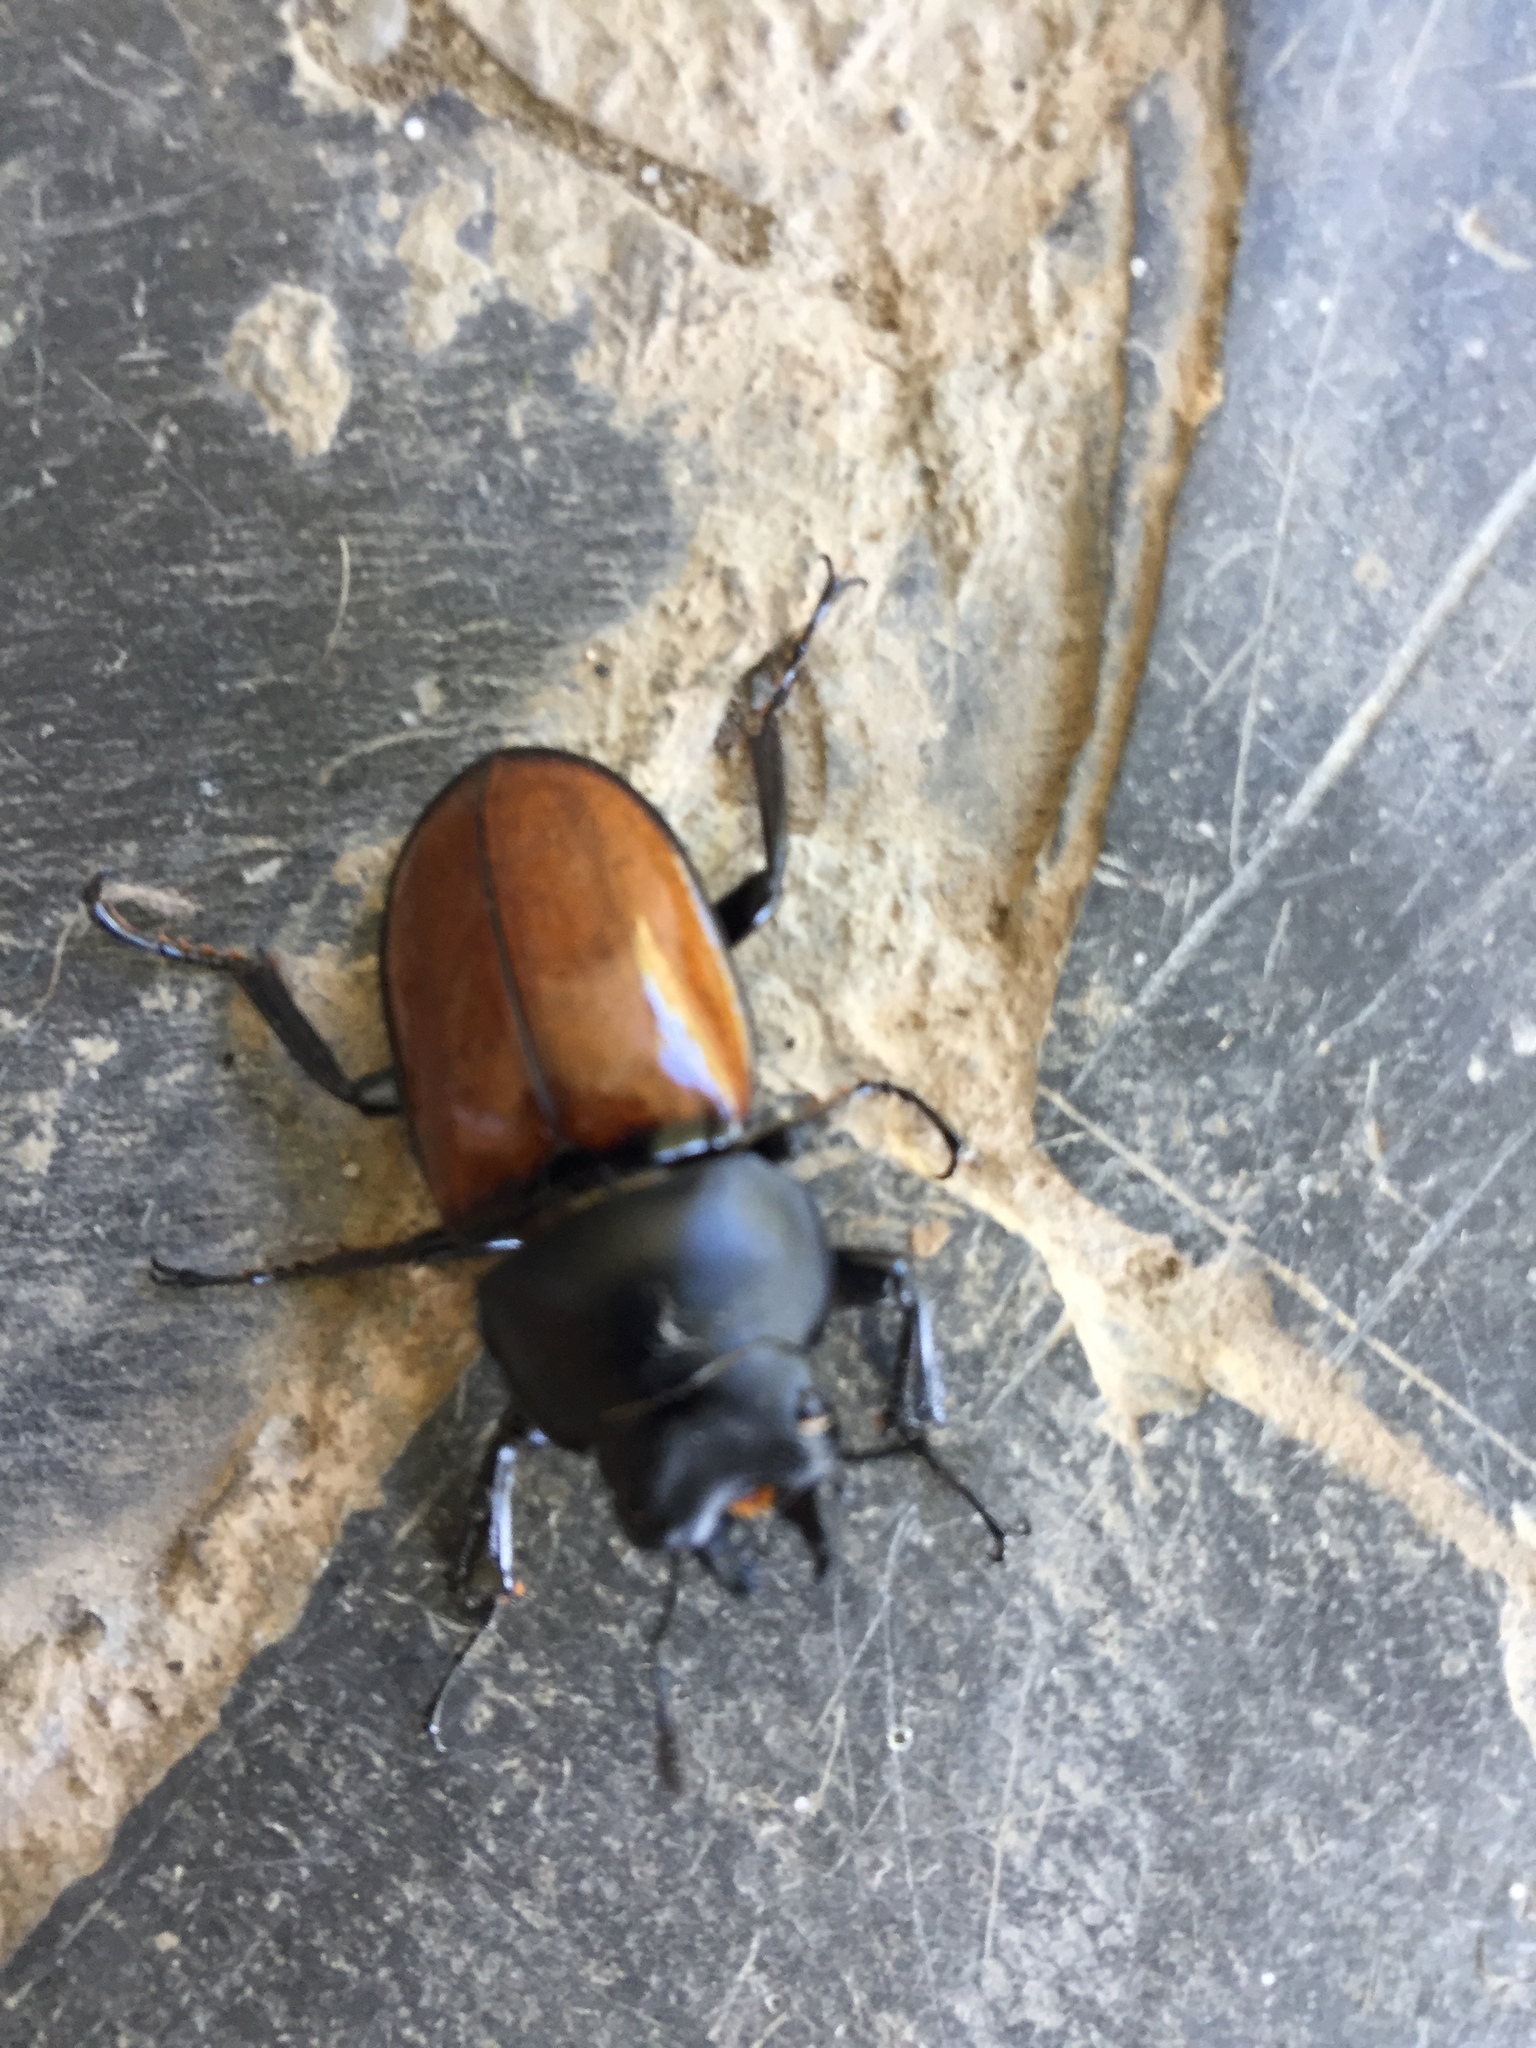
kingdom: Animalia
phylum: Arthropoda
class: Insecta
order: Coleoptera
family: Lucanidae
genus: Neolucanus
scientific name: Neolucanus castanopterus
